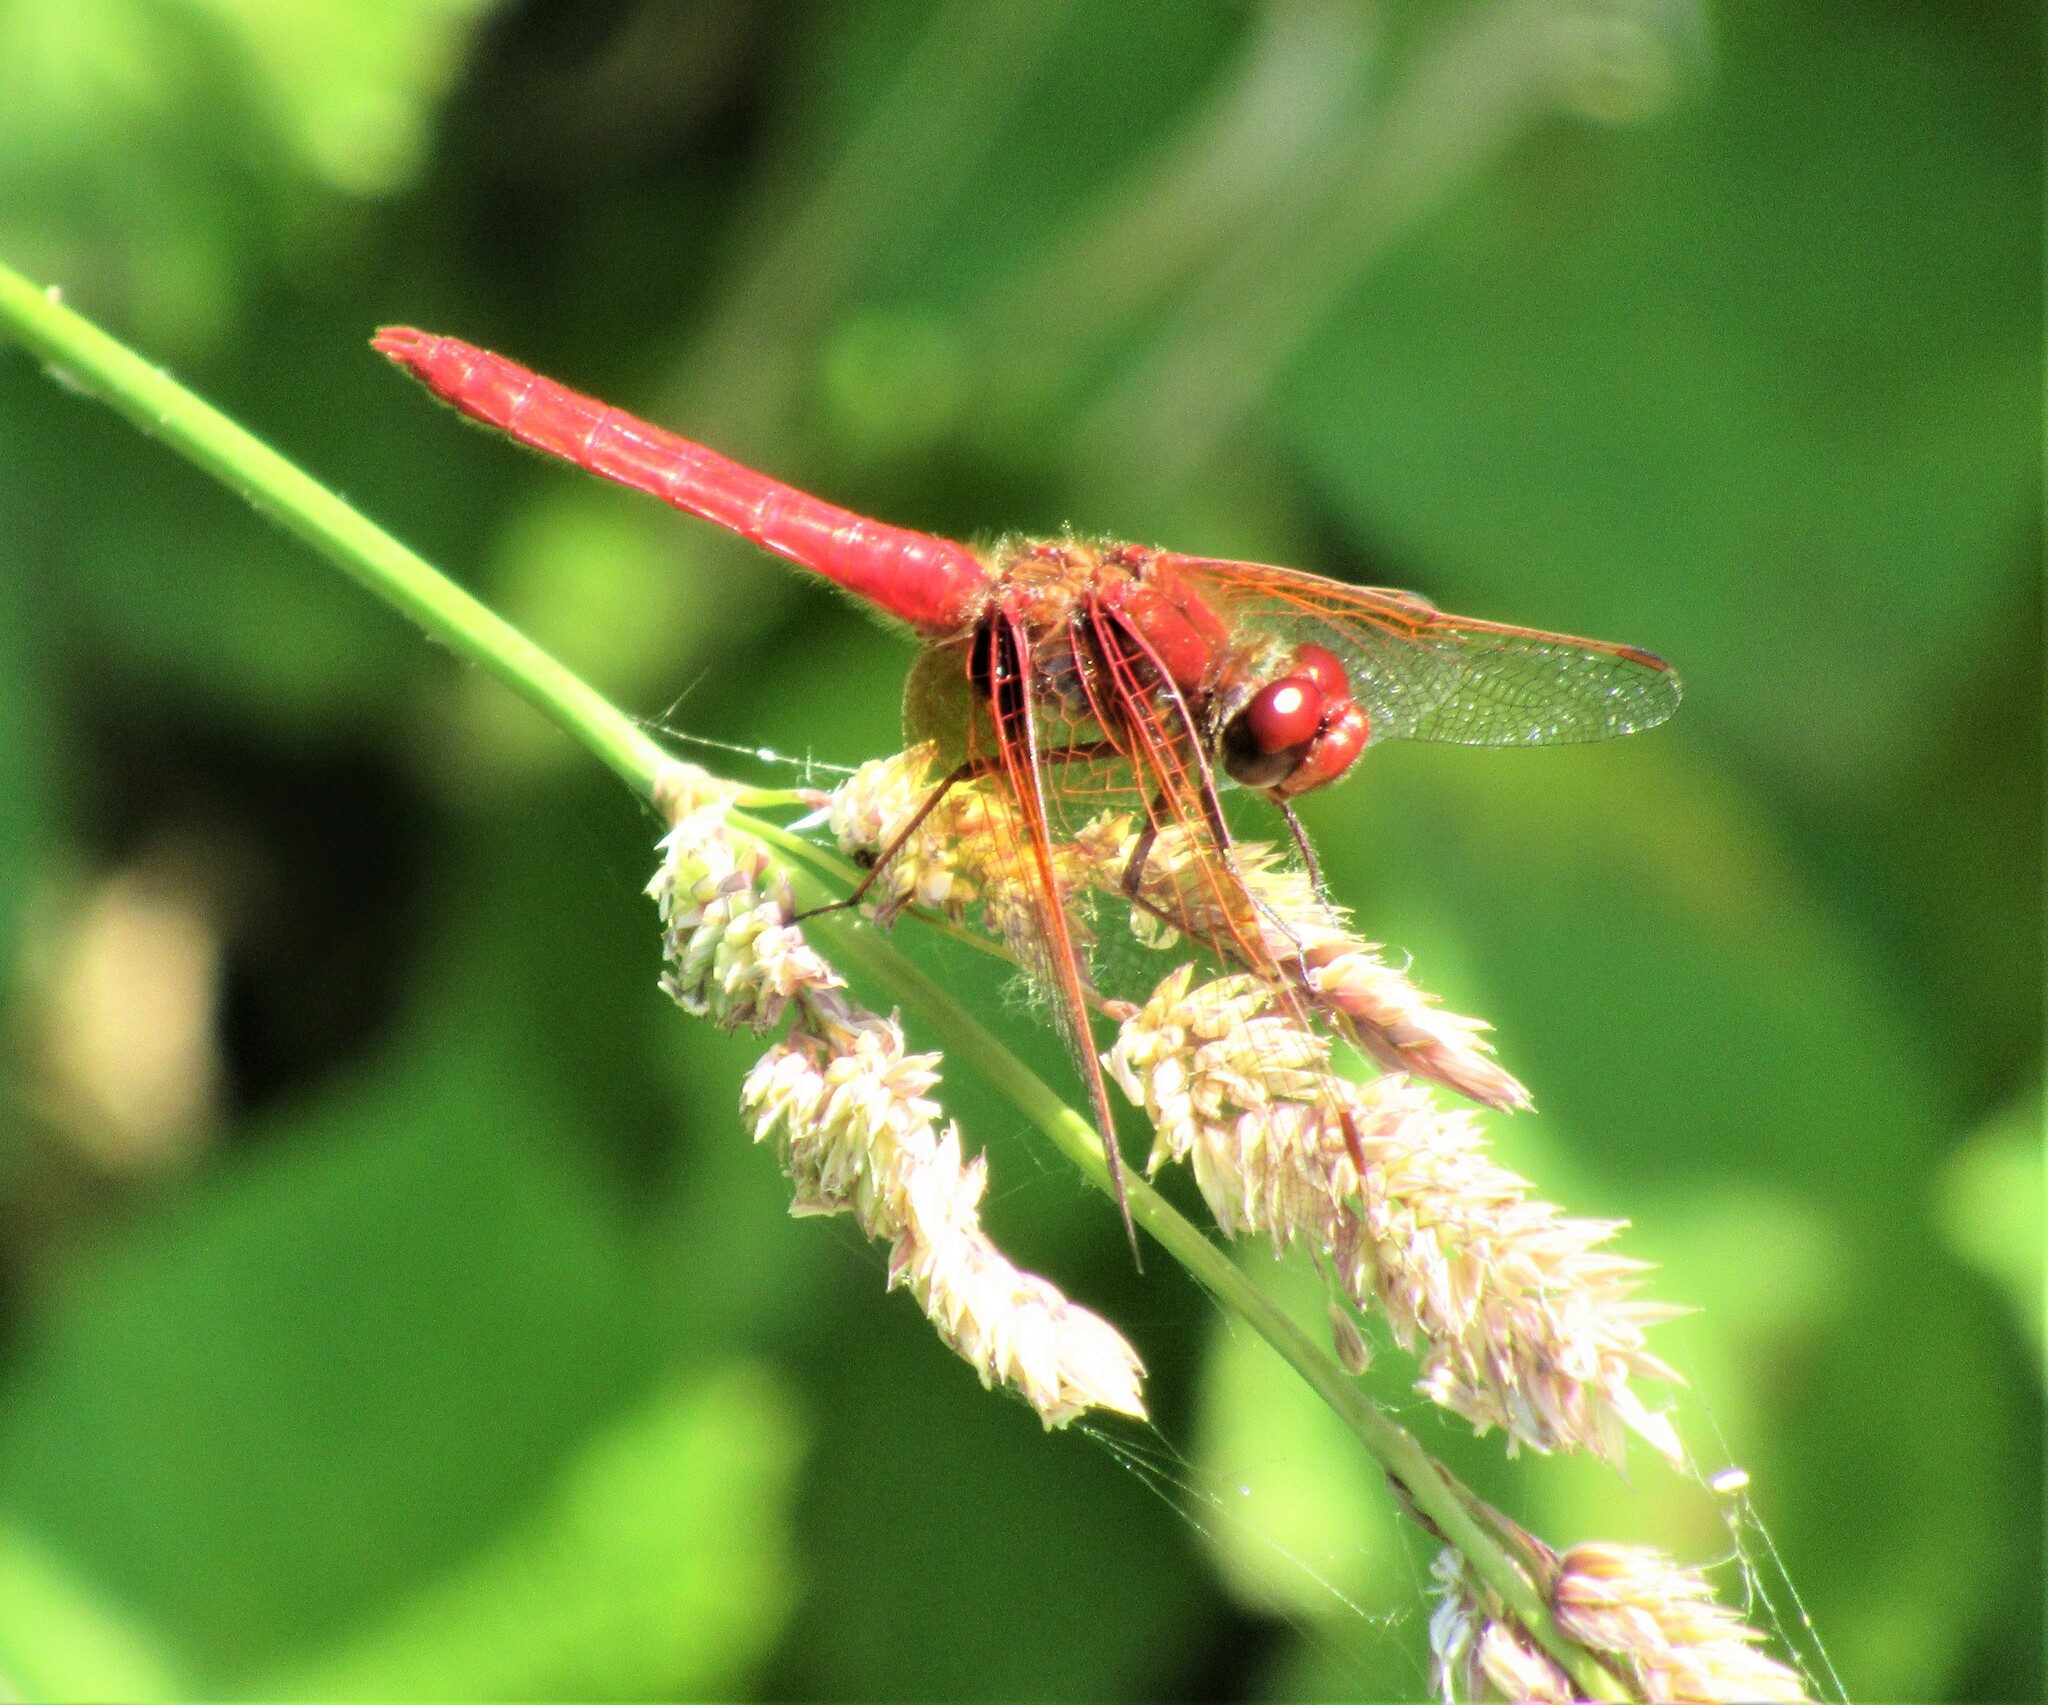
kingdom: Animalia
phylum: Arthropoda
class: Insecta
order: Odonata
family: Libellulidae
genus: Sympetrum
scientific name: Sympetrum illotum
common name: Cardinal meadowhawk
